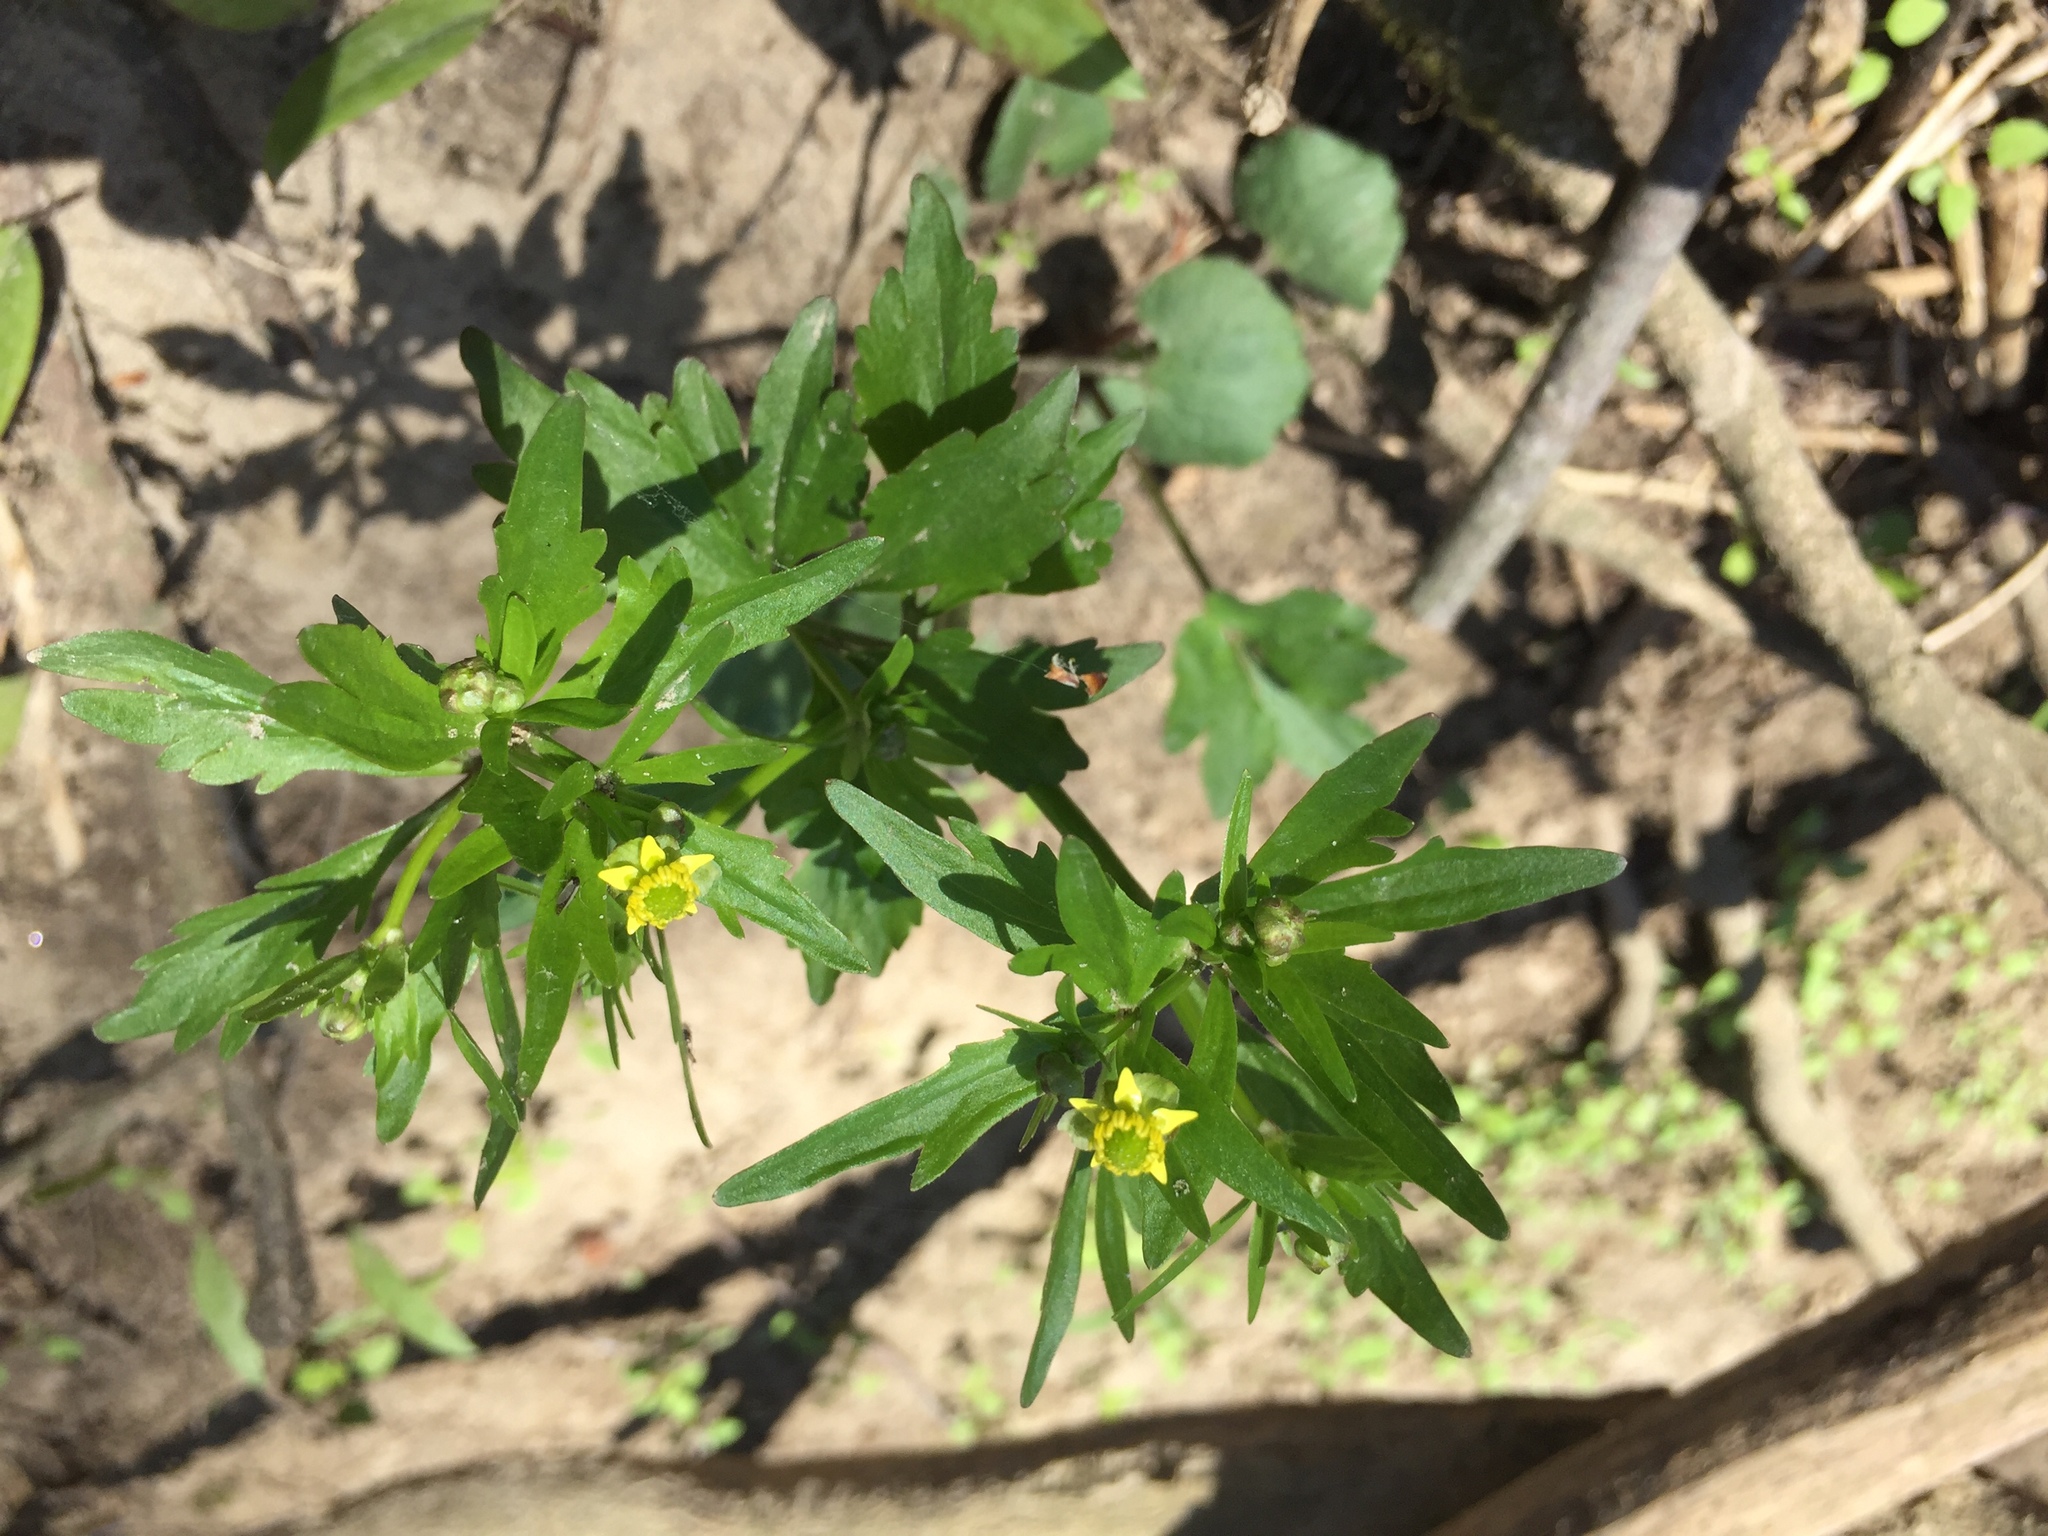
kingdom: Plantae
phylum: Tracheophyta
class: Magnoliopsida
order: Ranunculales
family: Ranunculaceae
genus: Ranunculus
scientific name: Ranunculus abortivus
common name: Early wood buttercup
